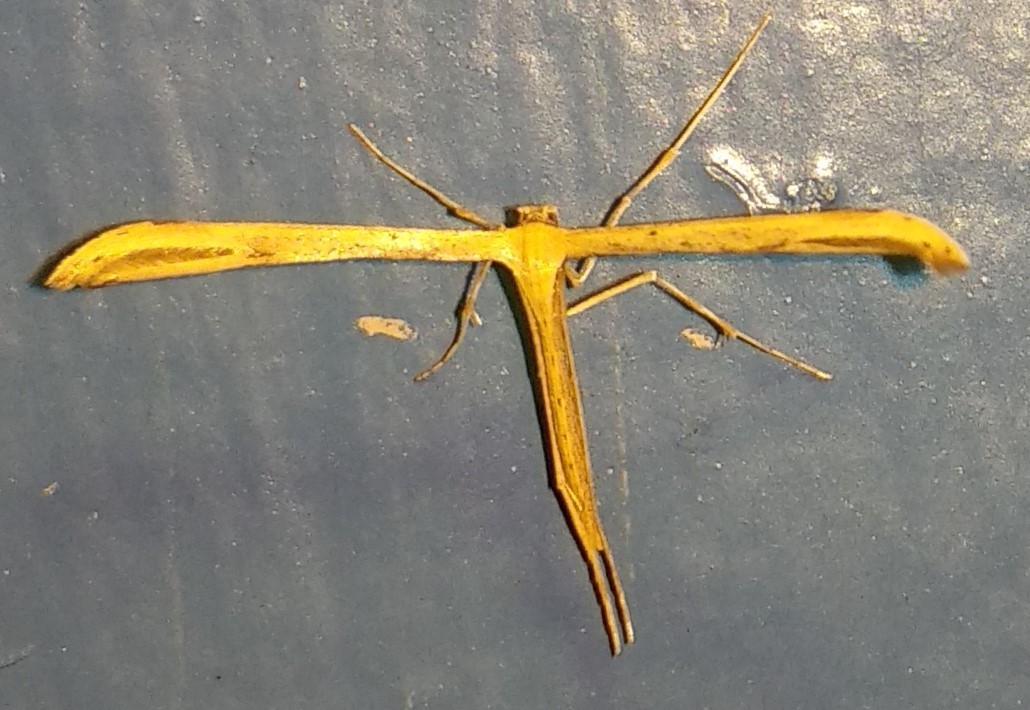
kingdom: Animalia
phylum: Arthropoda
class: Insecta
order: Lepidoptera
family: Pterophoridae
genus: Emmelina
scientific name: Emmelina monodactyla
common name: Common plume
